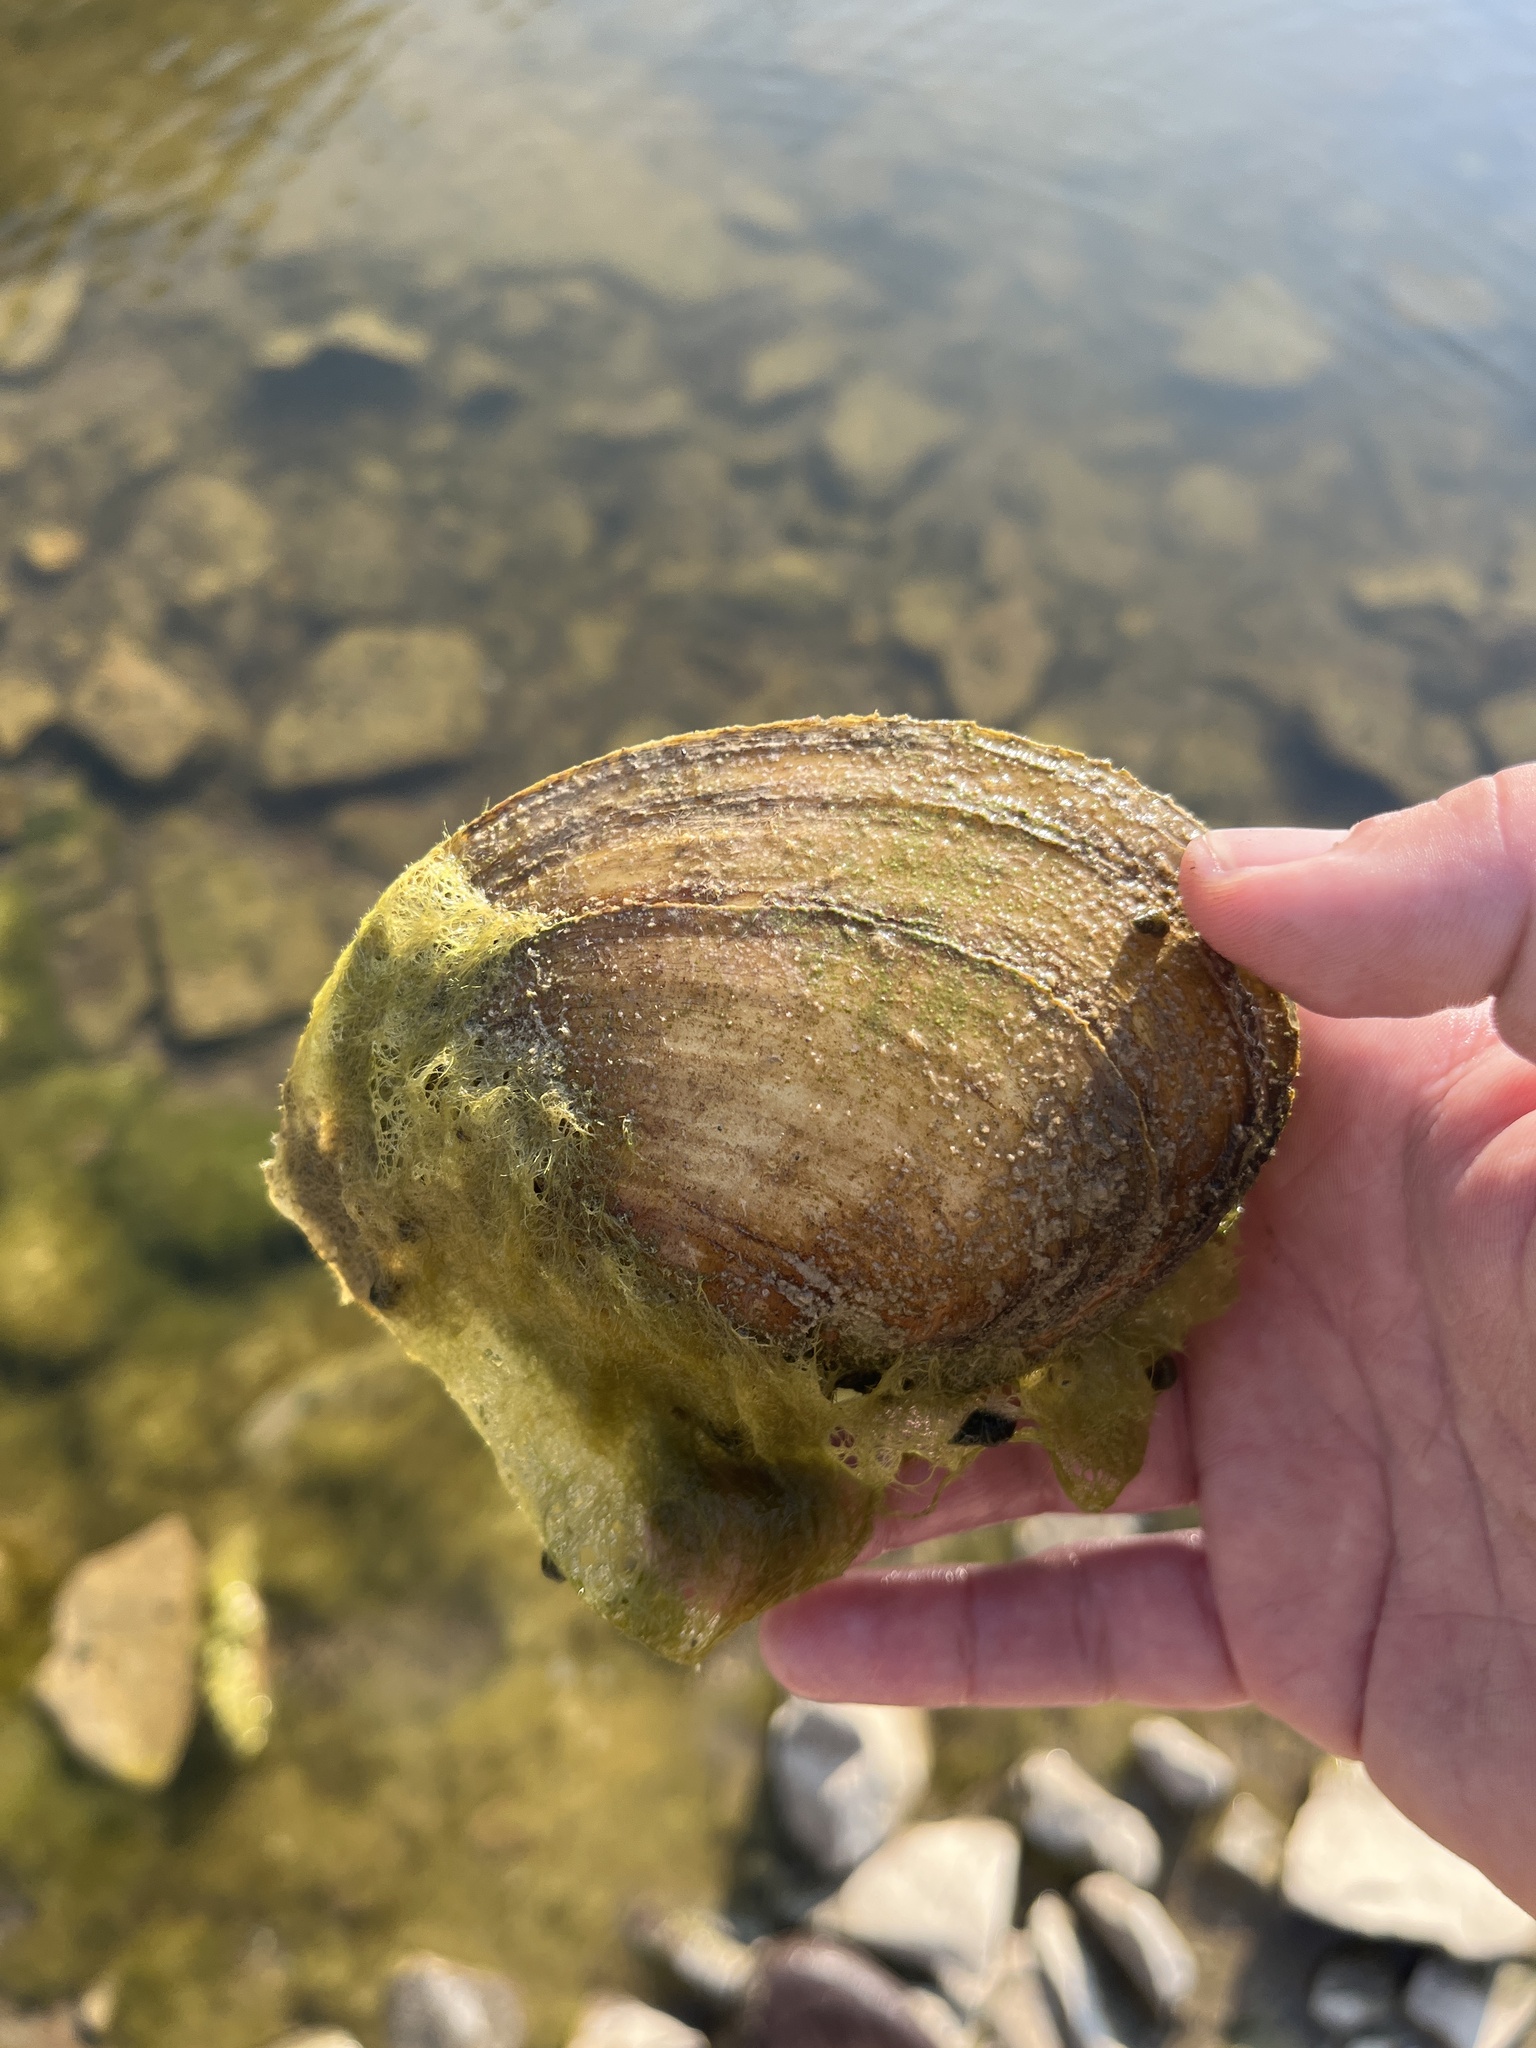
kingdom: Animalia
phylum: Mollusca
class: Bivalvia
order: Unionida
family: Unionidae
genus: Potamilus
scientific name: Potamilus ohiensis
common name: Pink papershell
